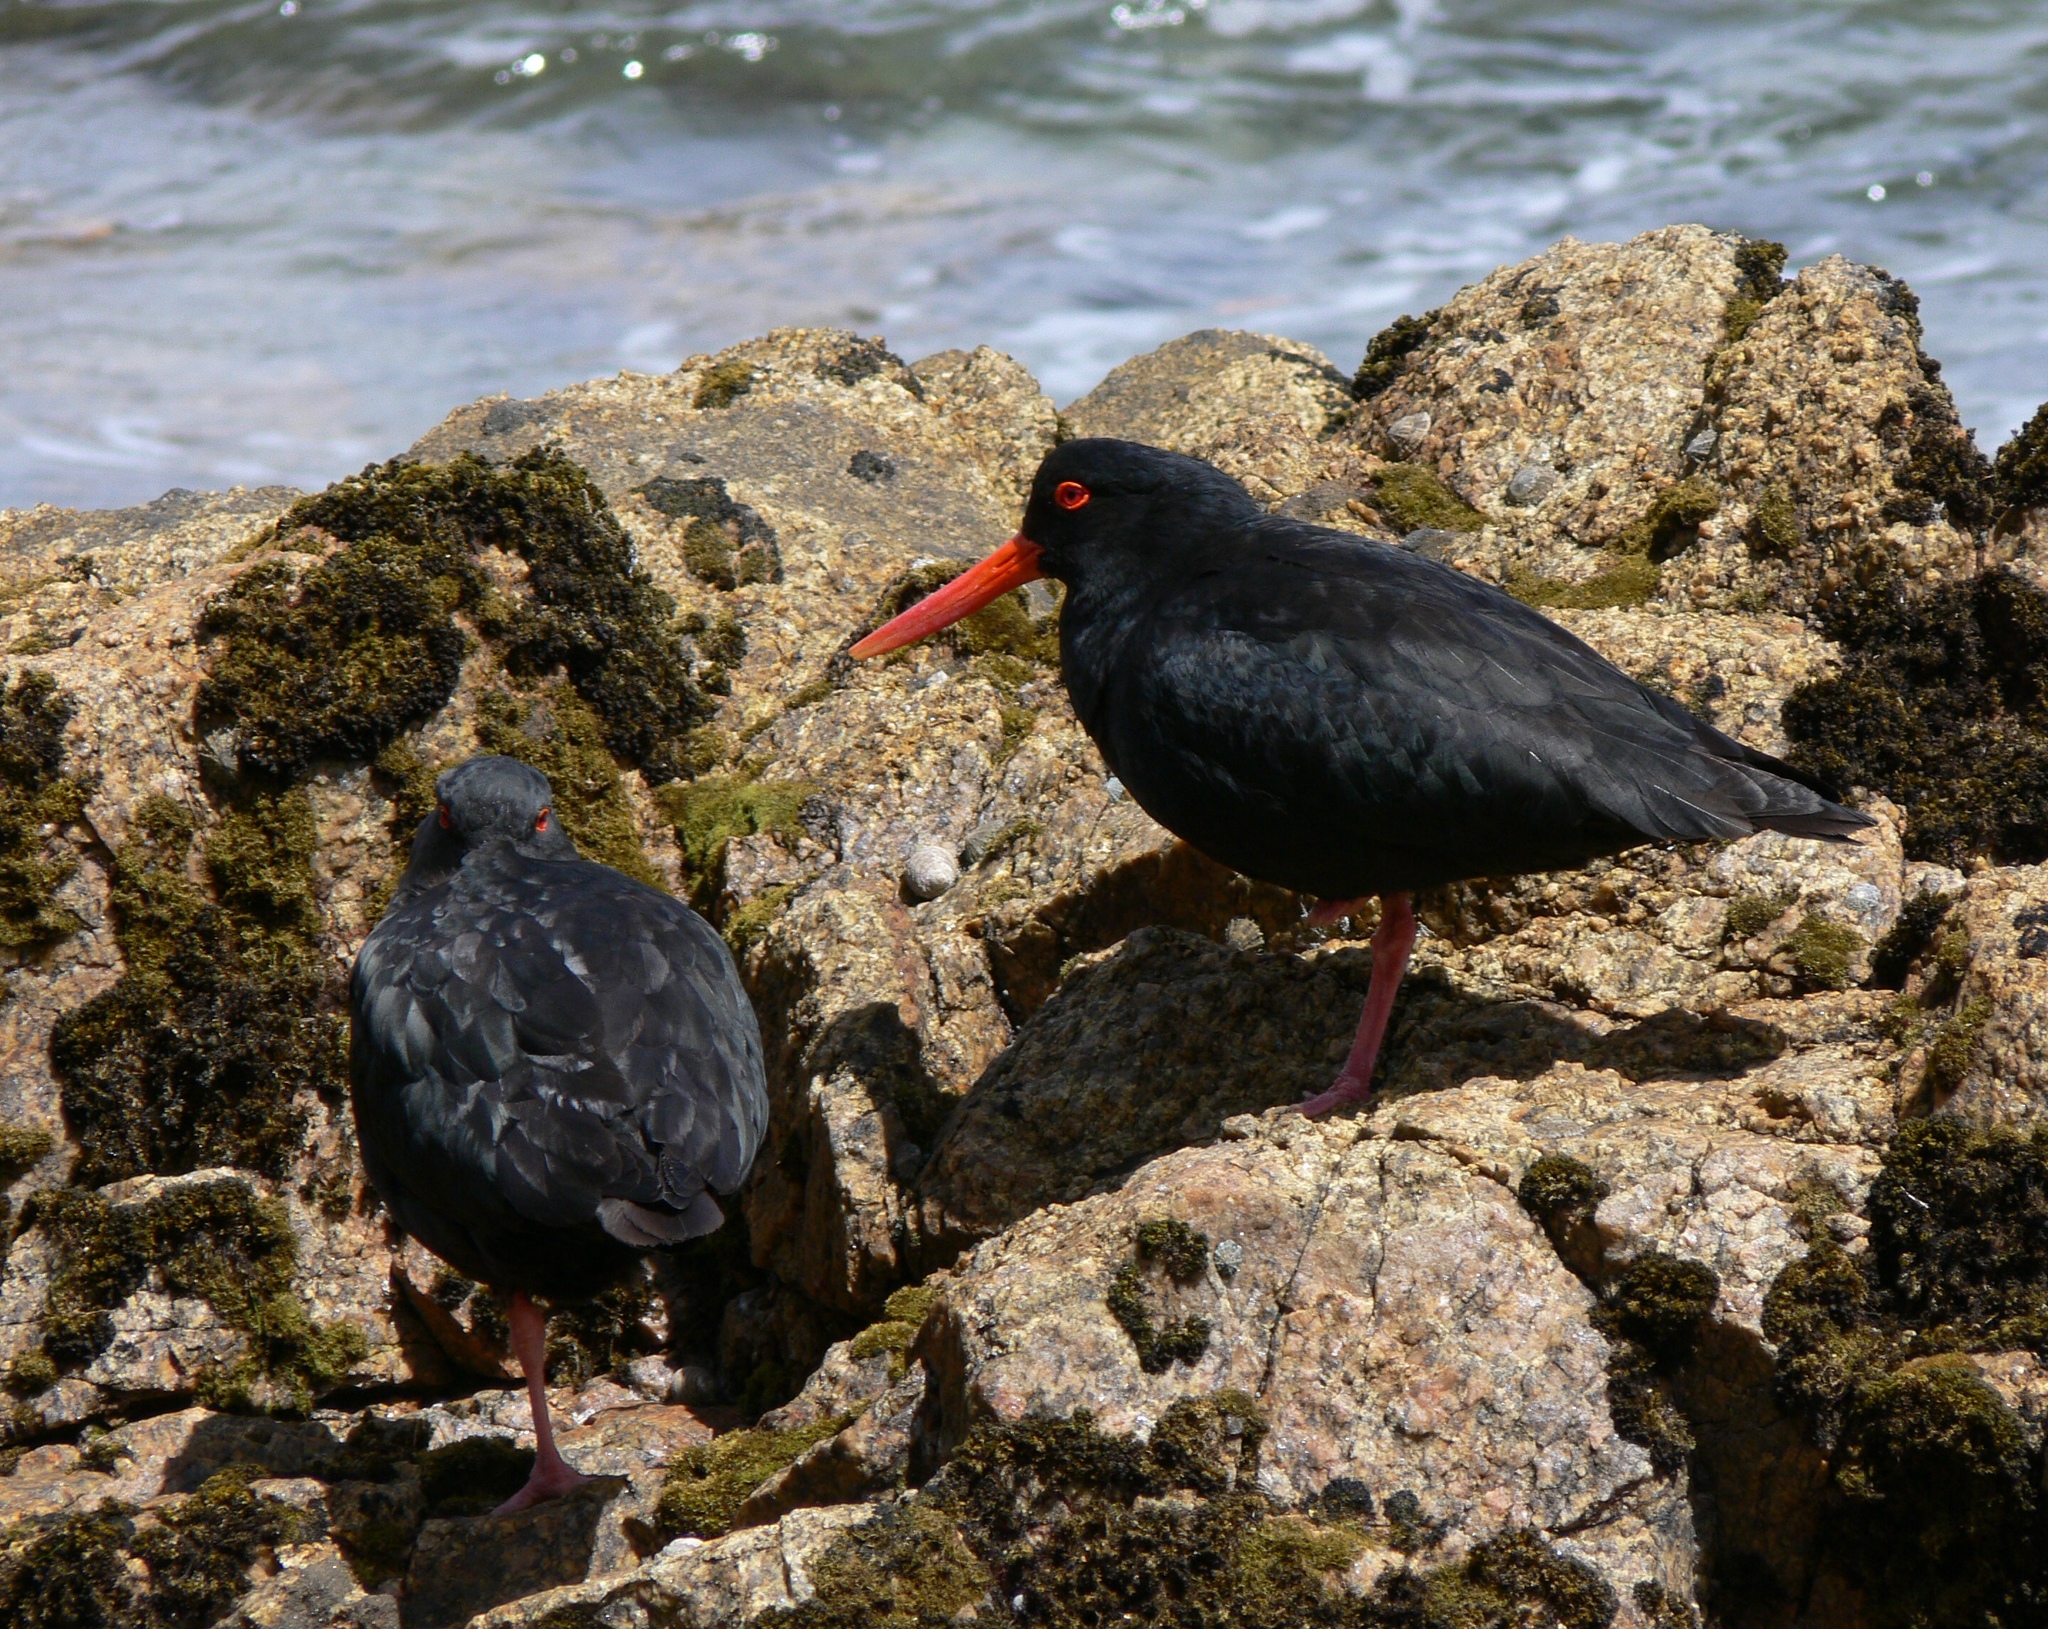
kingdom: Animalia
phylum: Chordata
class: Aves
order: Charadriiformes
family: Haematopodidae
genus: Haematopus
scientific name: Haematopus unicolor
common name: Variable oystercatcher
